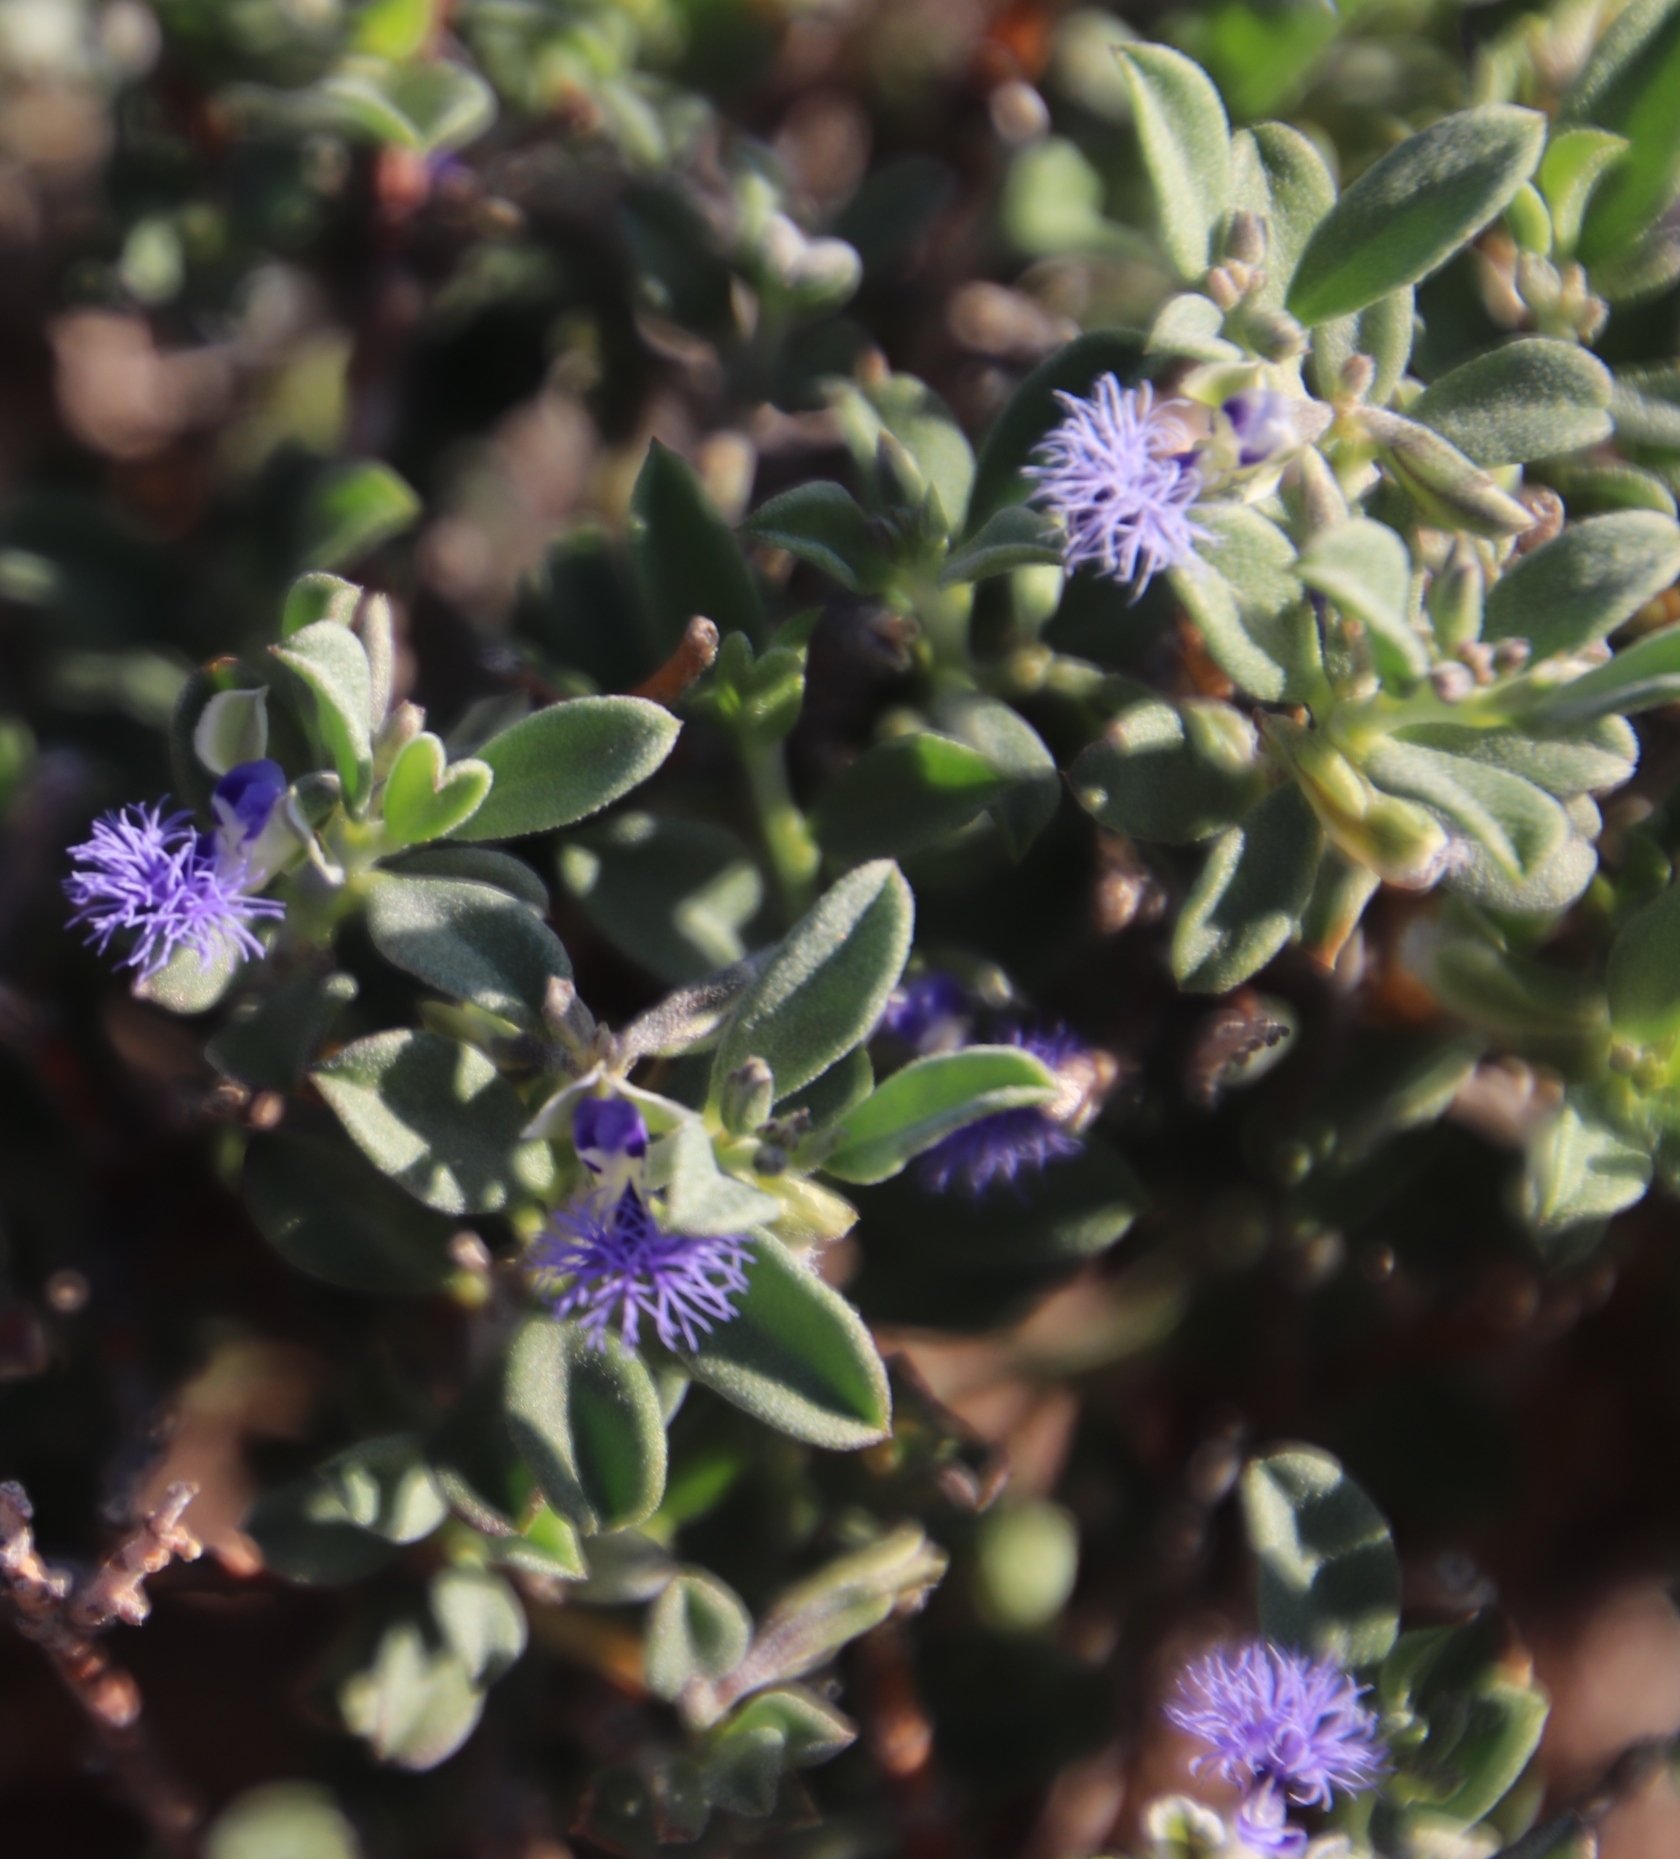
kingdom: Plantae
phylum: Tracheophyta
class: Magnoliopsida
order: Fabales
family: Polygalaceae
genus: Polygala
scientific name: Polygala asbestina
